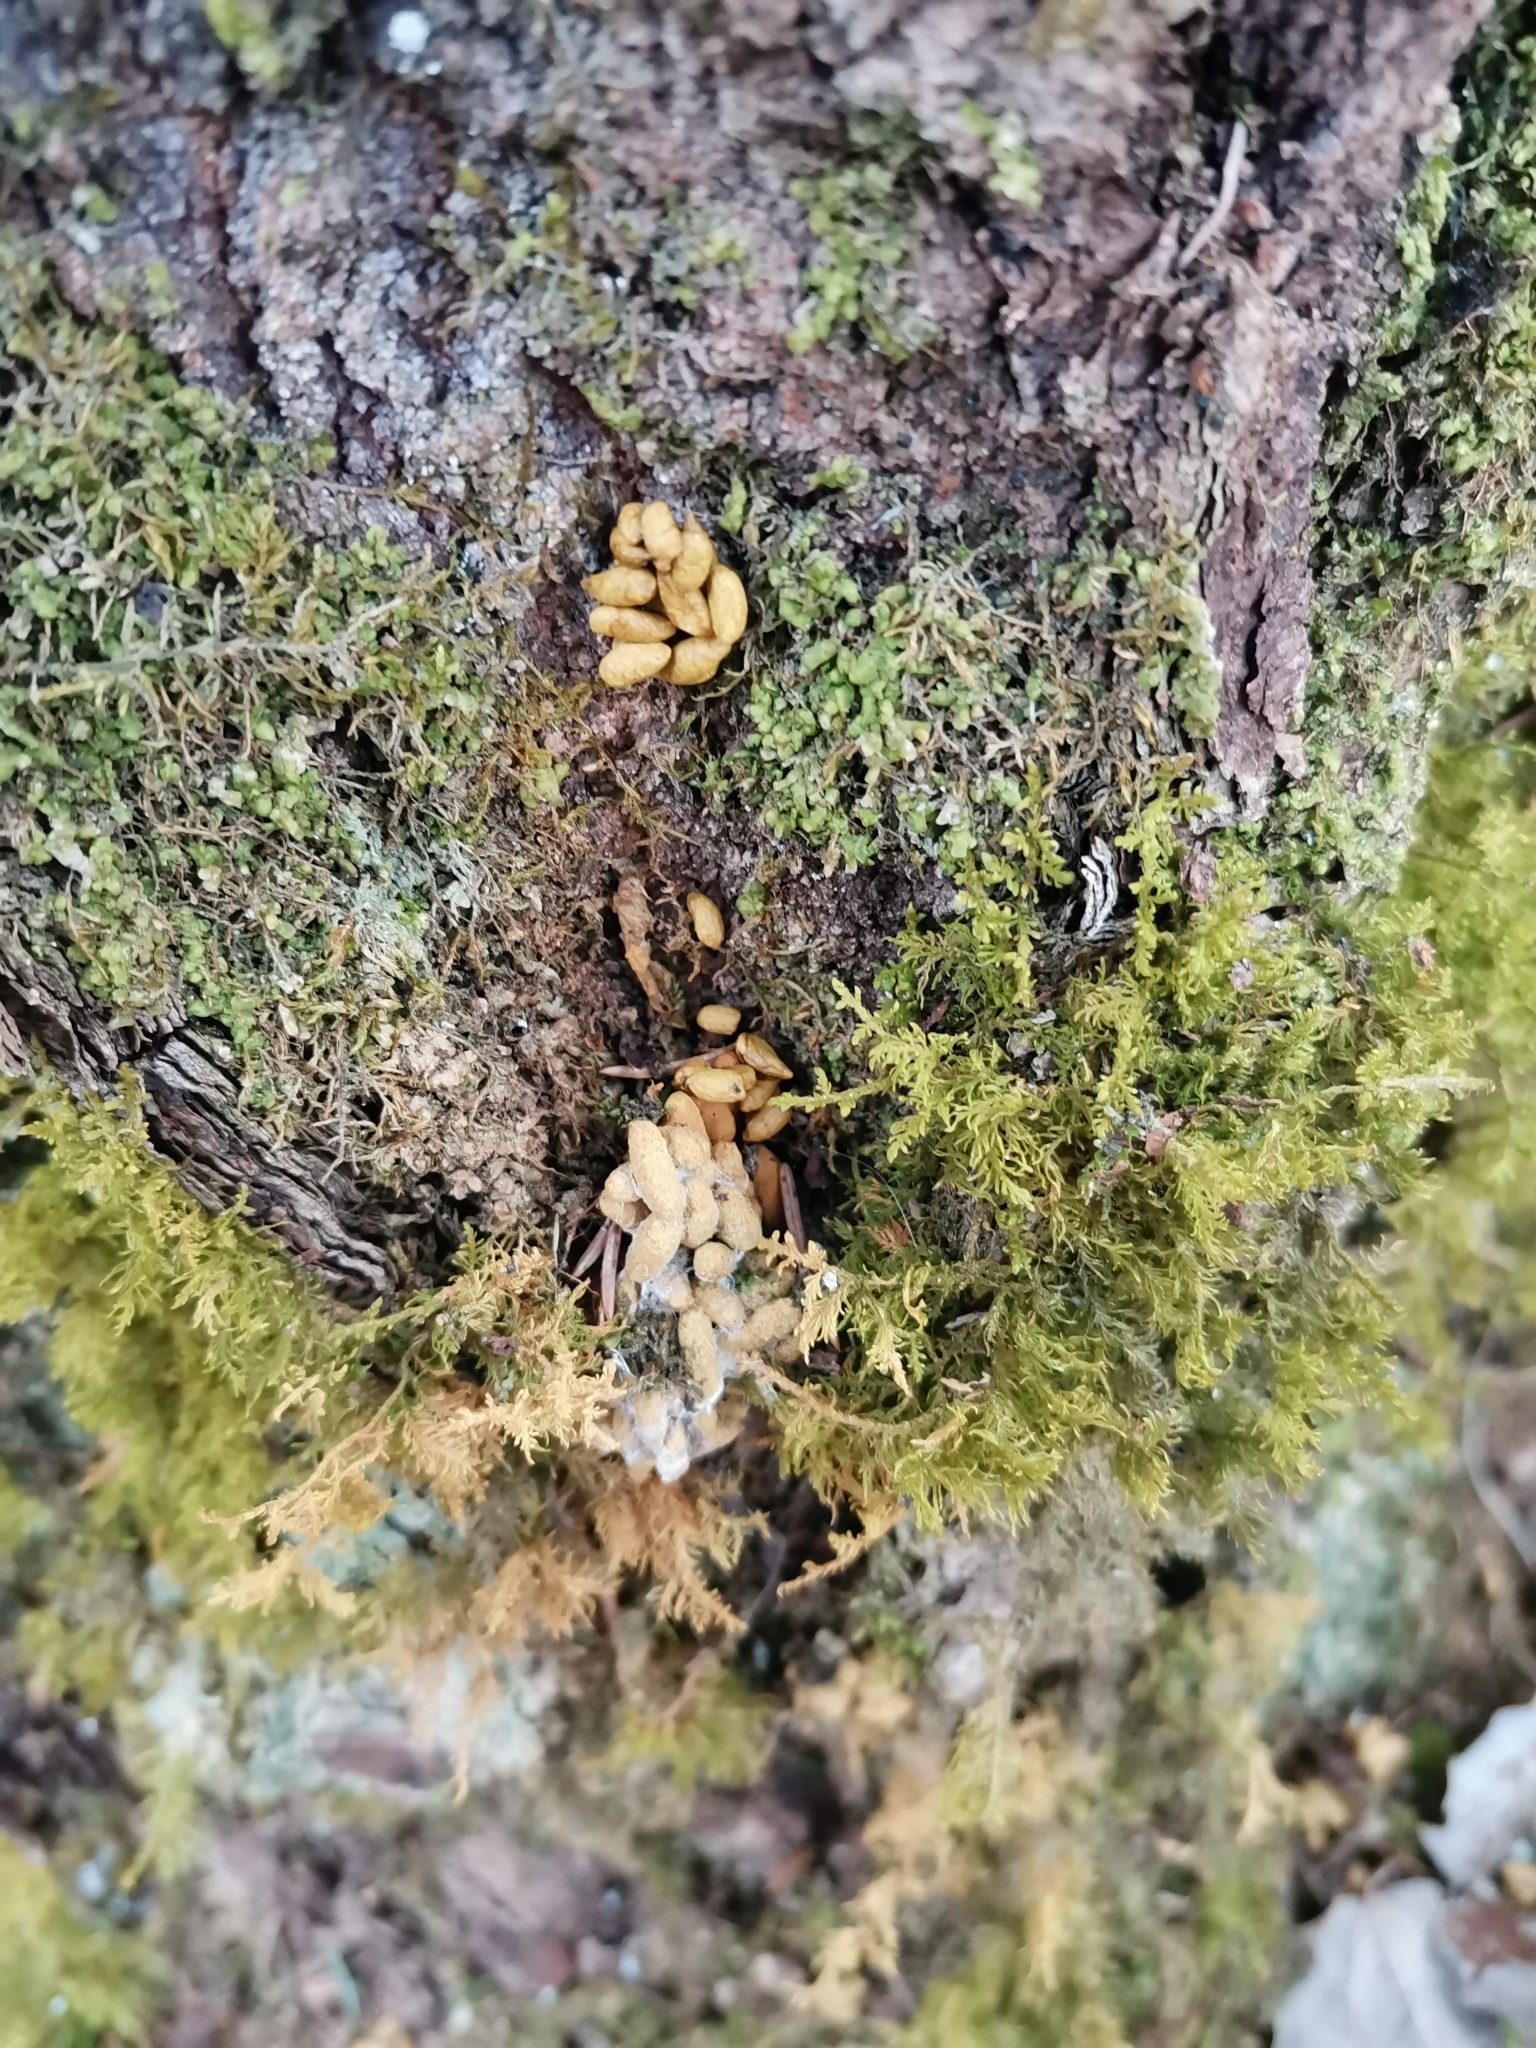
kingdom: Animalia
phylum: Chordata
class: Mammalia
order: Rodentia
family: Sciuridae
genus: Pteromys
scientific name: Pteromys volans
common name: Siberian flying squirrel
